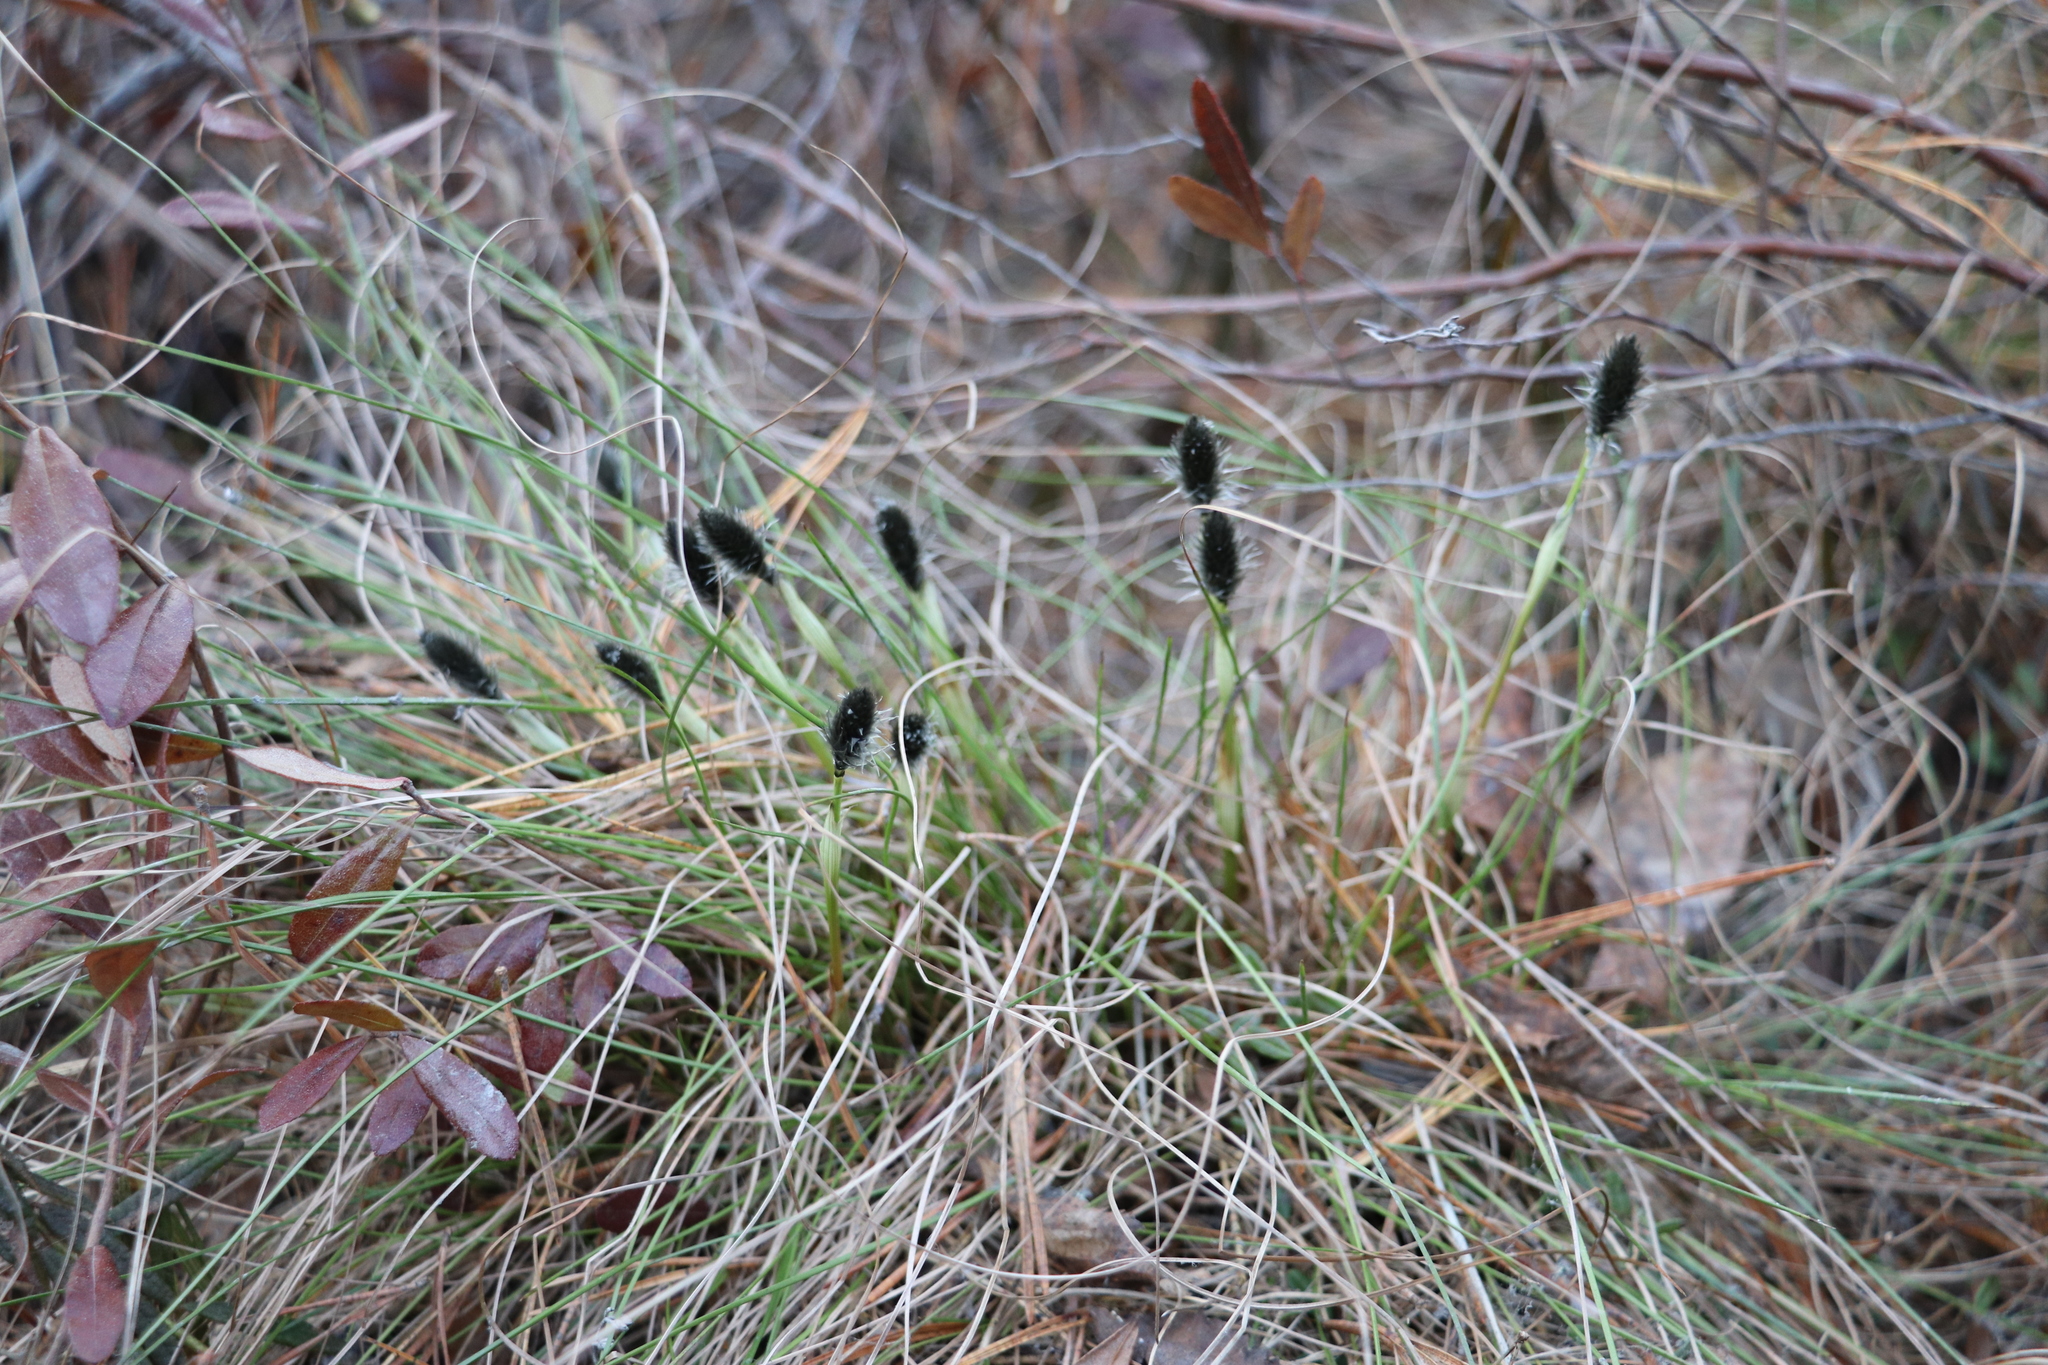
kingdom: Plantae
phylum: Tracheophyta
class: Liliopsida
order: Poales
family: Cyperaceae
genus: Eriophorum
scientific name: Eriophorum vaginatum
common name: Hare's-tail cottongrass
